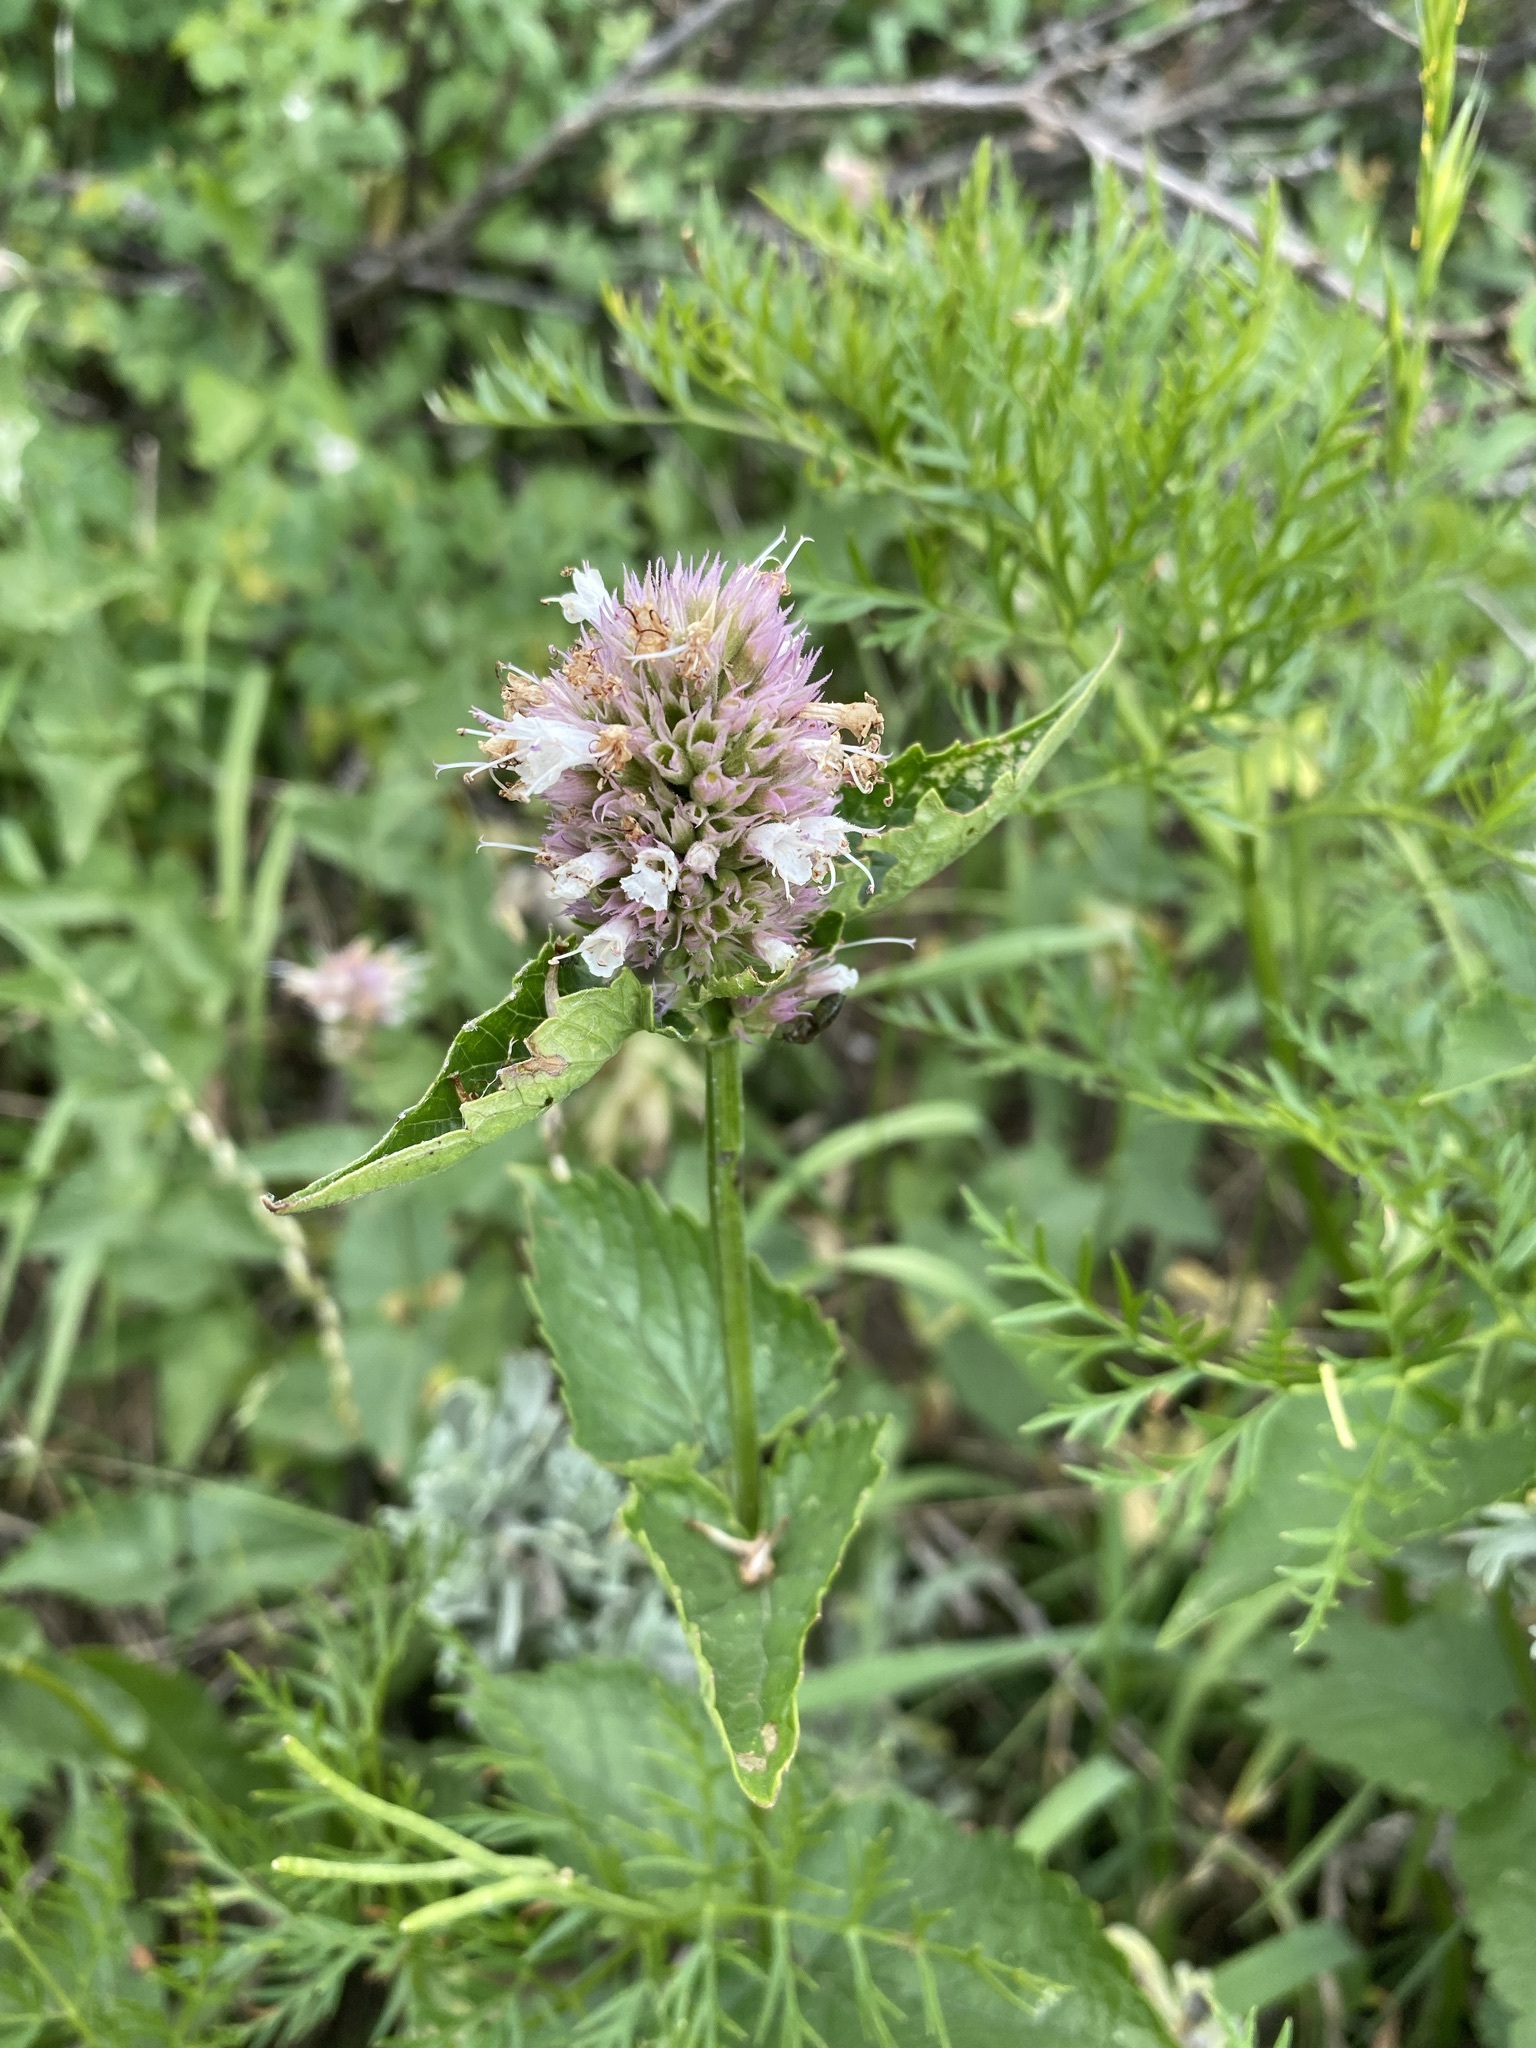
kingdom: Plantae
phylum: Tracheophyta
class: Magnoliopsida
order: Lamiales
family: Lamiaceae
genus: Agastache
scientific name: Agastache urticifolia
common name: Horsemint giant hyssop
